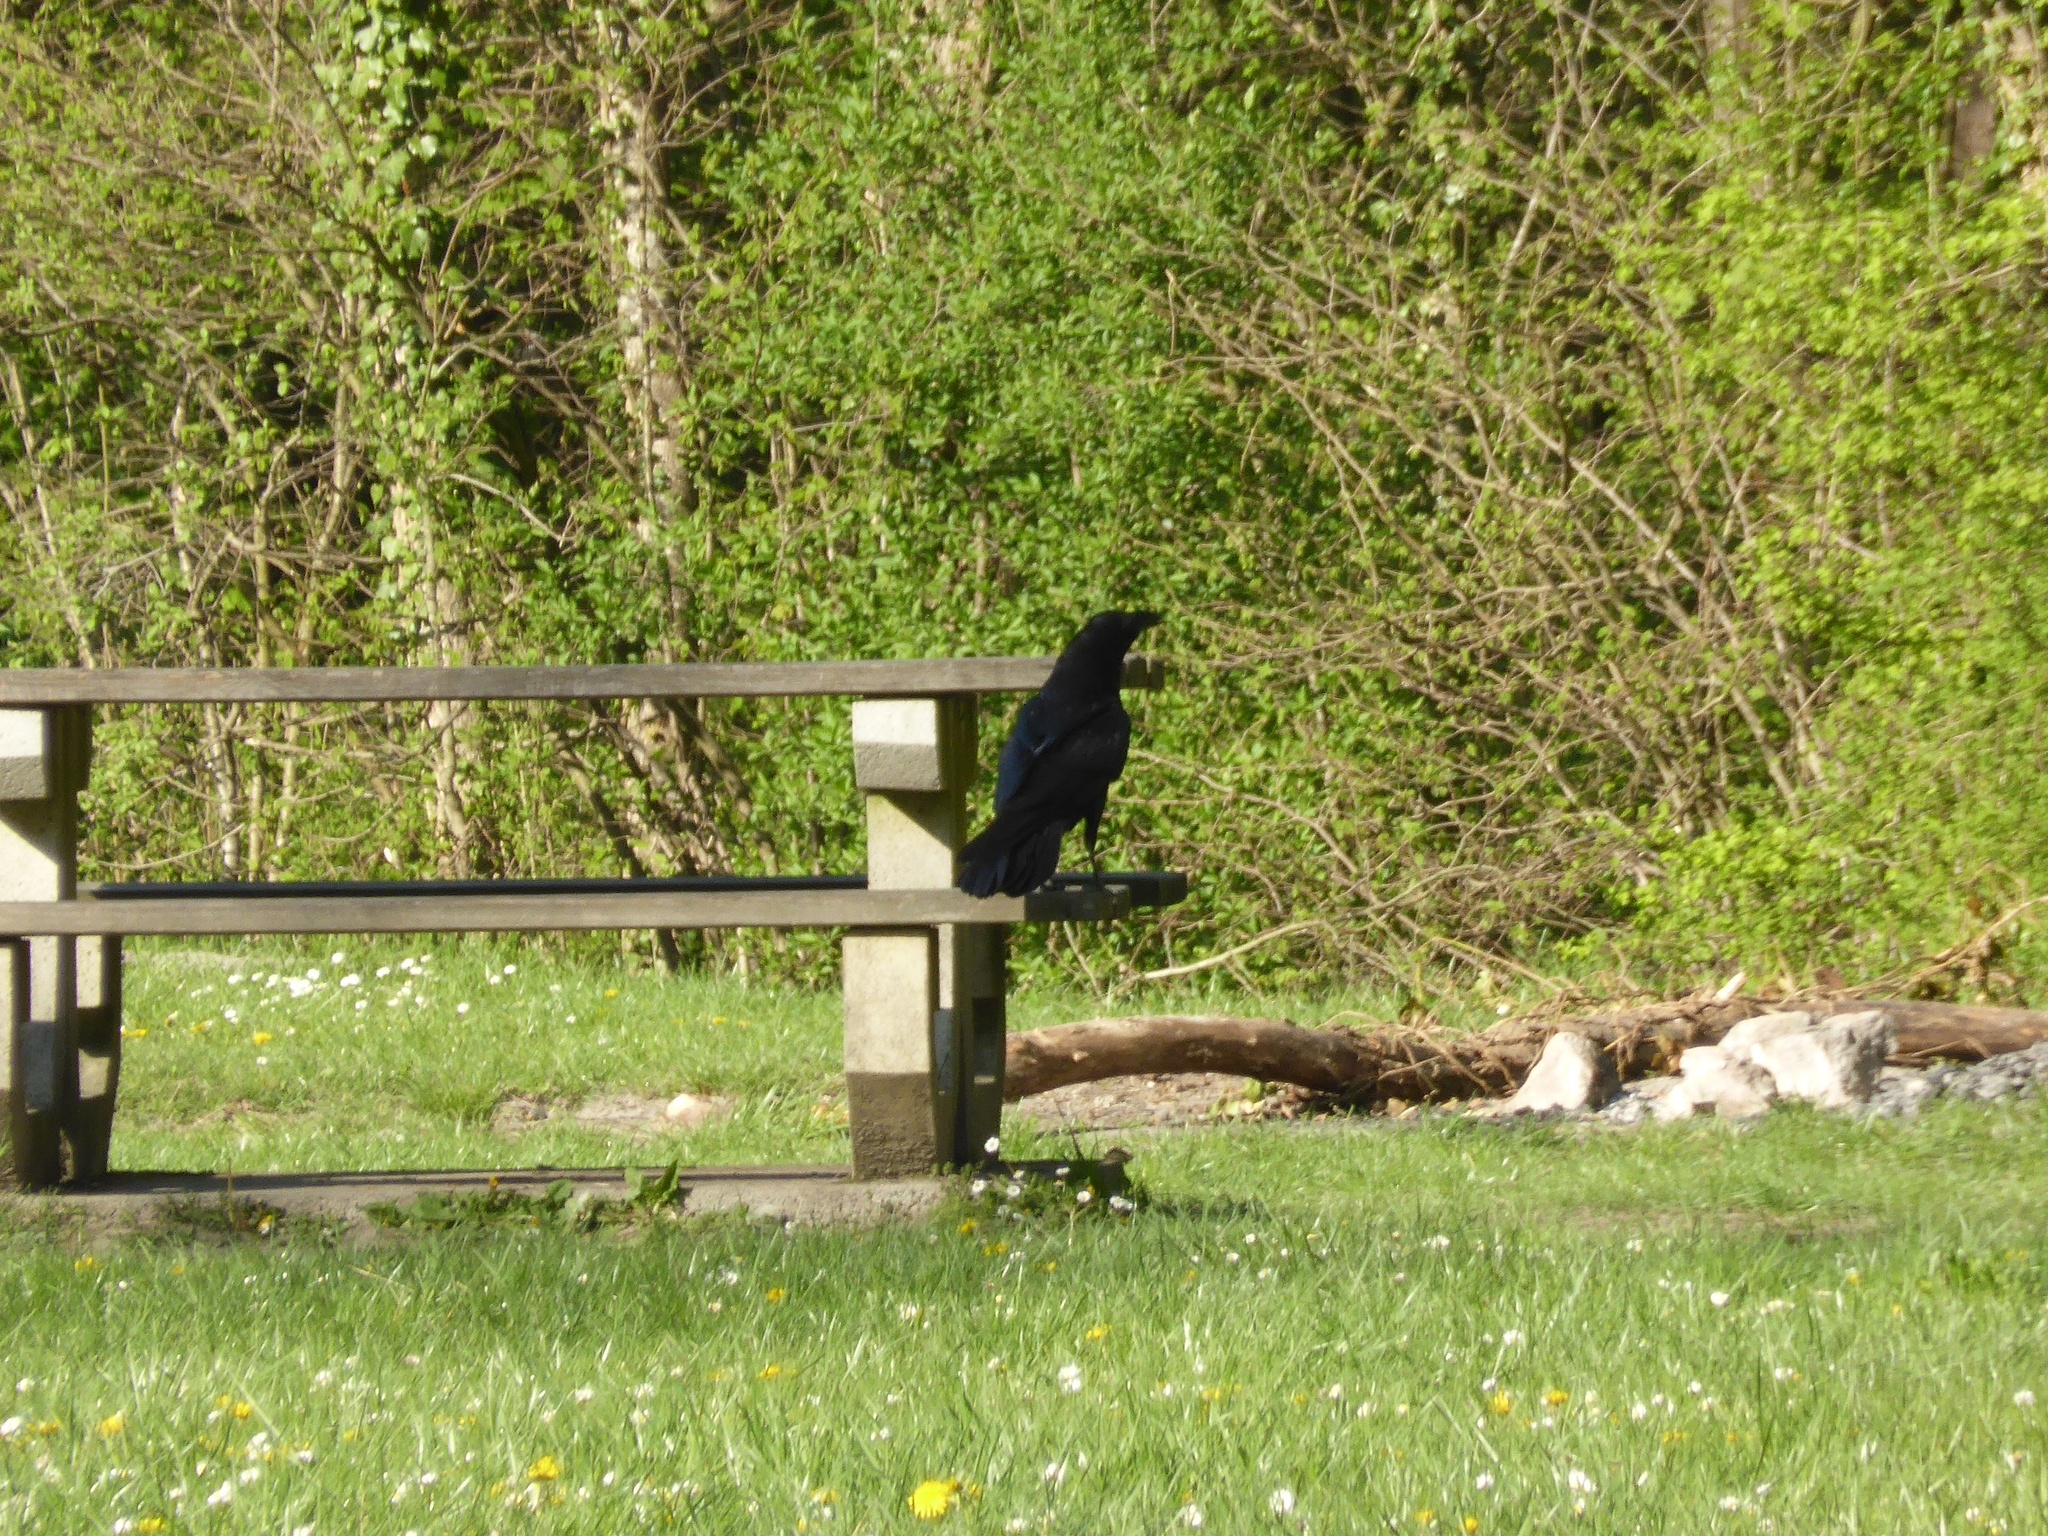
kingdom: Animalia
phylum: Chordata
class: Aves
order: Passeriformes
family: Corvidae
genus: Corvus
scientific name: Corvus corax
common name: Common raven
